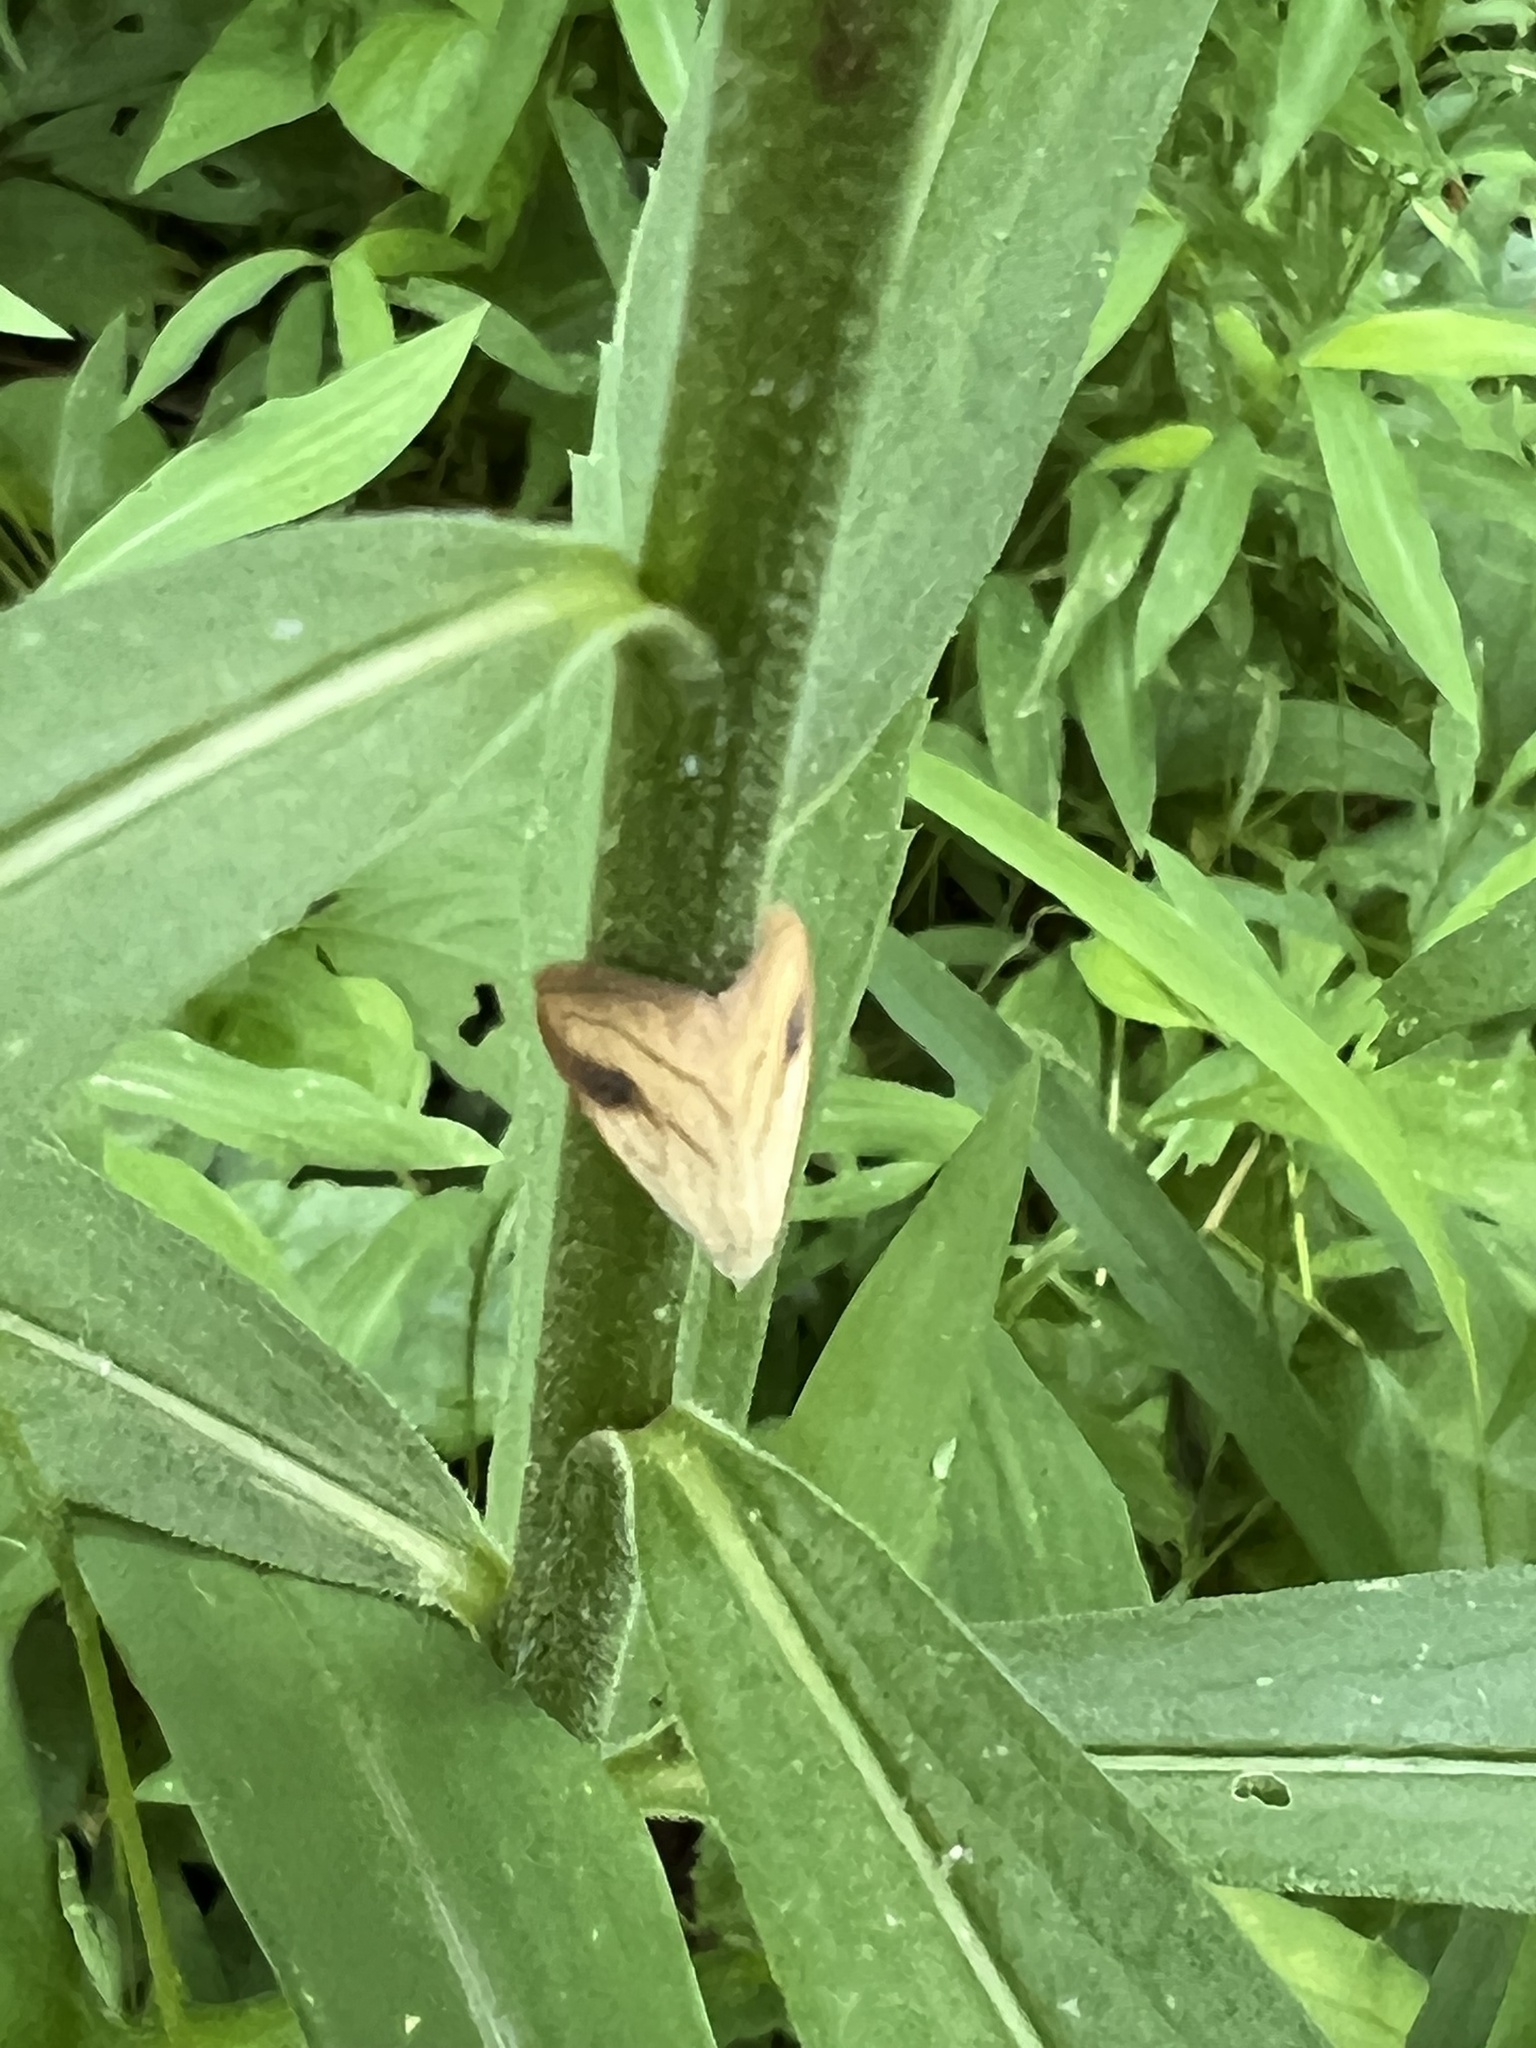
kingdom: Animalia
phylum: Arthropoda
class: Insecta
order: Lepidoptera
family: Erebidae
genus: Rivula
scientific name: Rivula propinqualis
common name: Spotted grass moth
